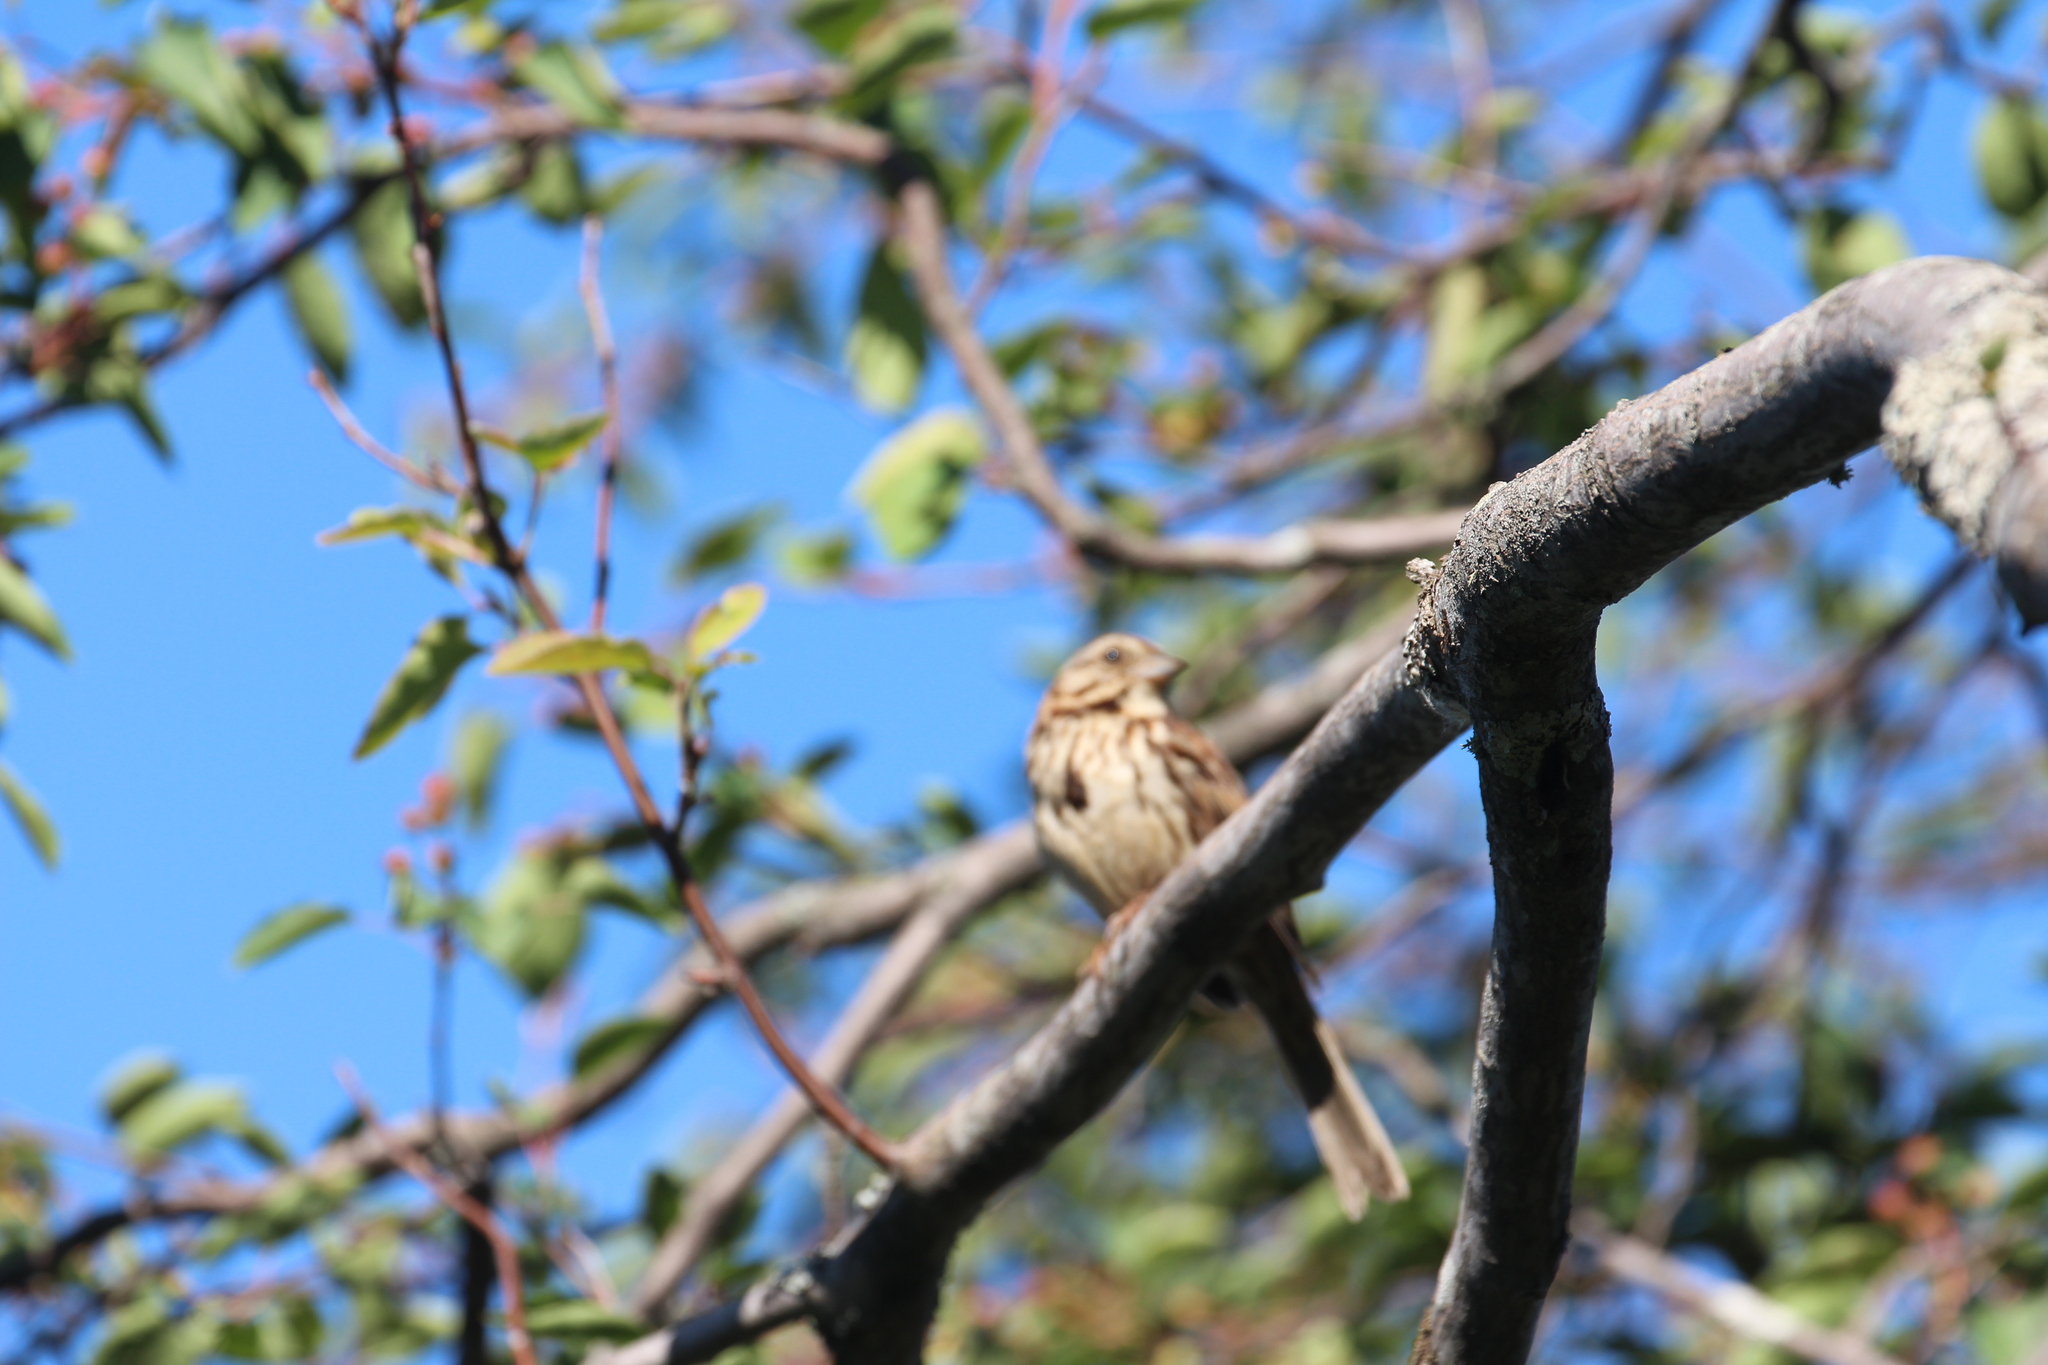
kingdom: Animalia
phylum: Chordata
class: Aves
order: Passeriformes
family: Passerellidae
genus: Melospiza
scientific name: Melospiza melodia
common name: Song sparrow
